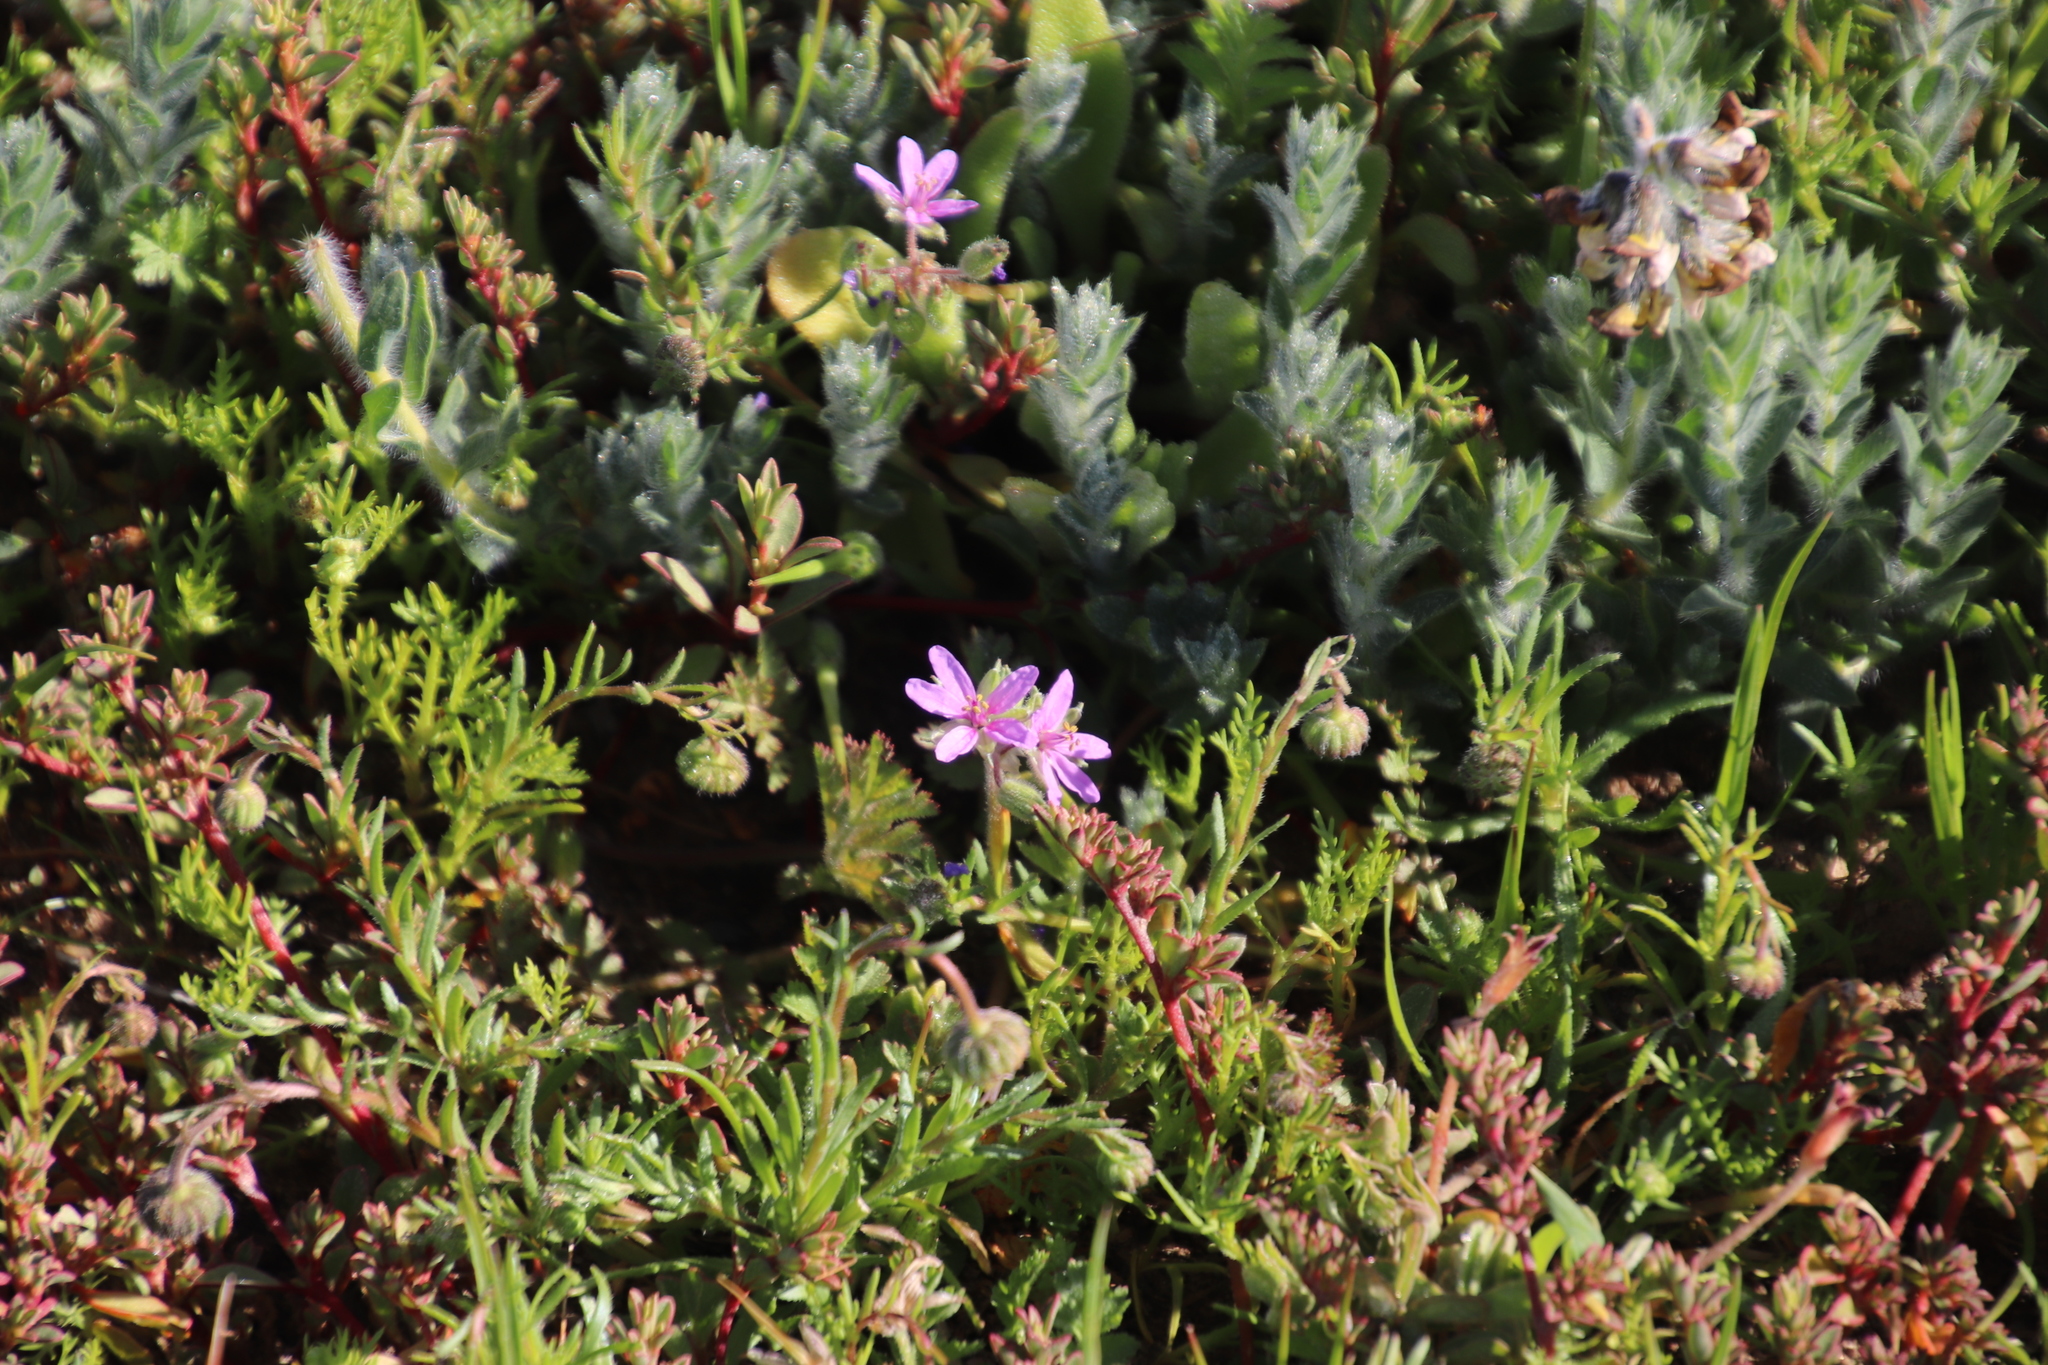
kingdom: Plantae
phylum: Tracheophyta
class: Magnoliopsida
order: Geraniales
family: Geraniaceae
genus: Erodium
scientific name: Erodium moschatum
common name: Musk stork's-bill
